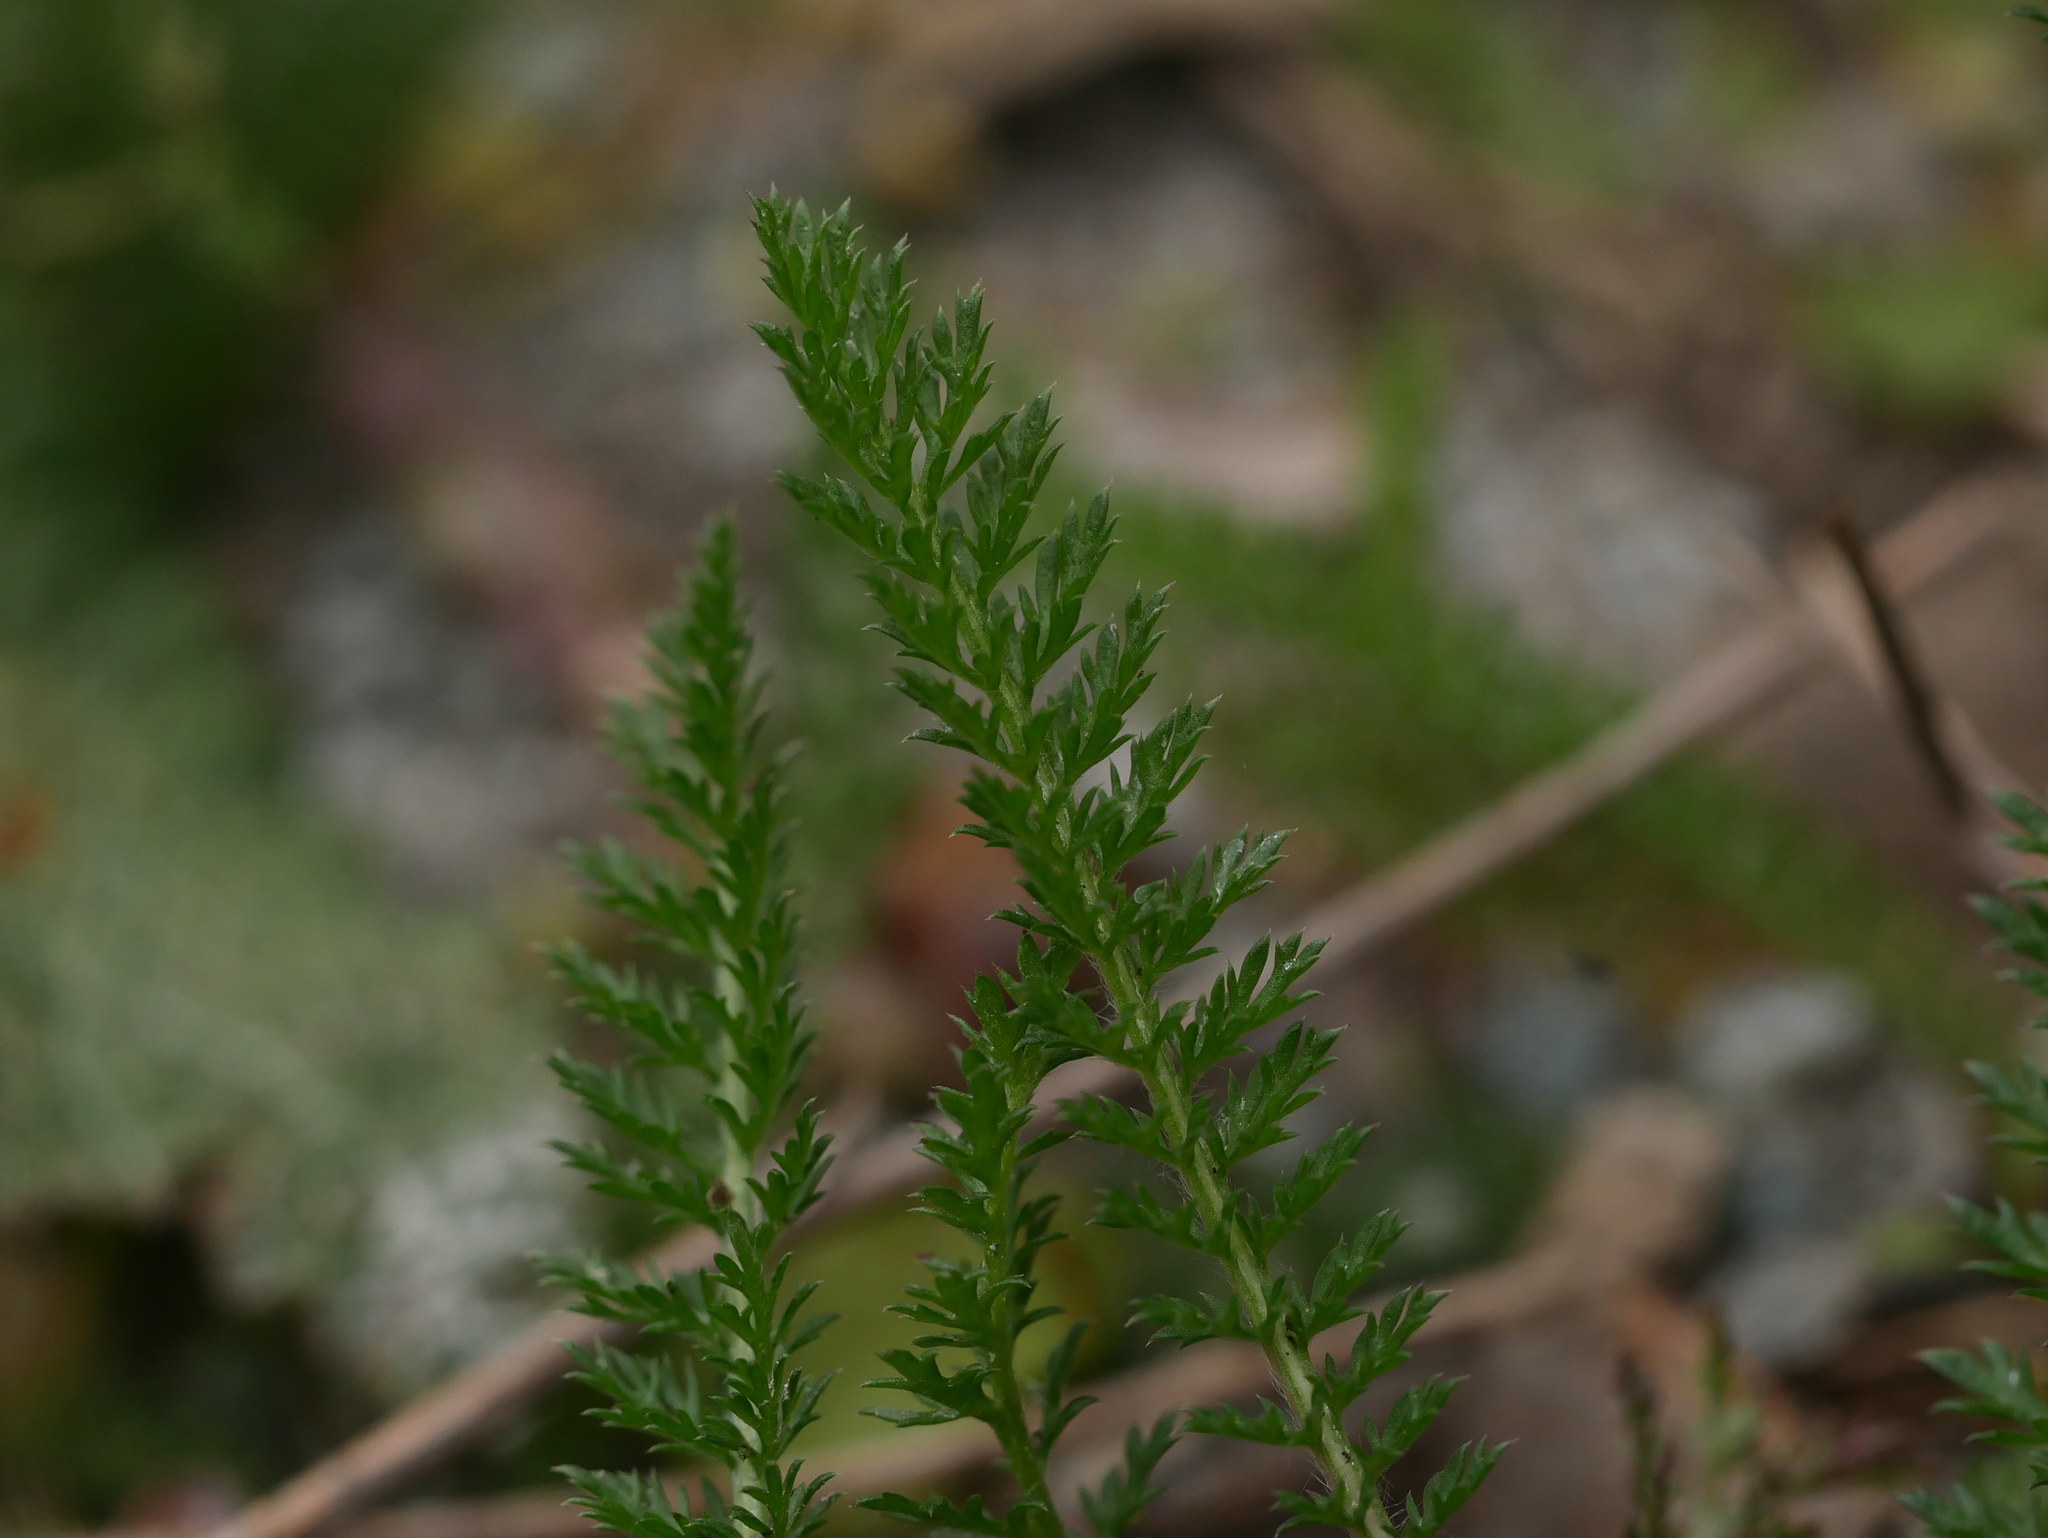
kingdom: Plantae
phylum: Tracheophyta
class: Magnoliopsida
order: Asterales
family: Asteraceae
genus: Achillea
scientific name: Achillea millefolium
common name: Yarrow
